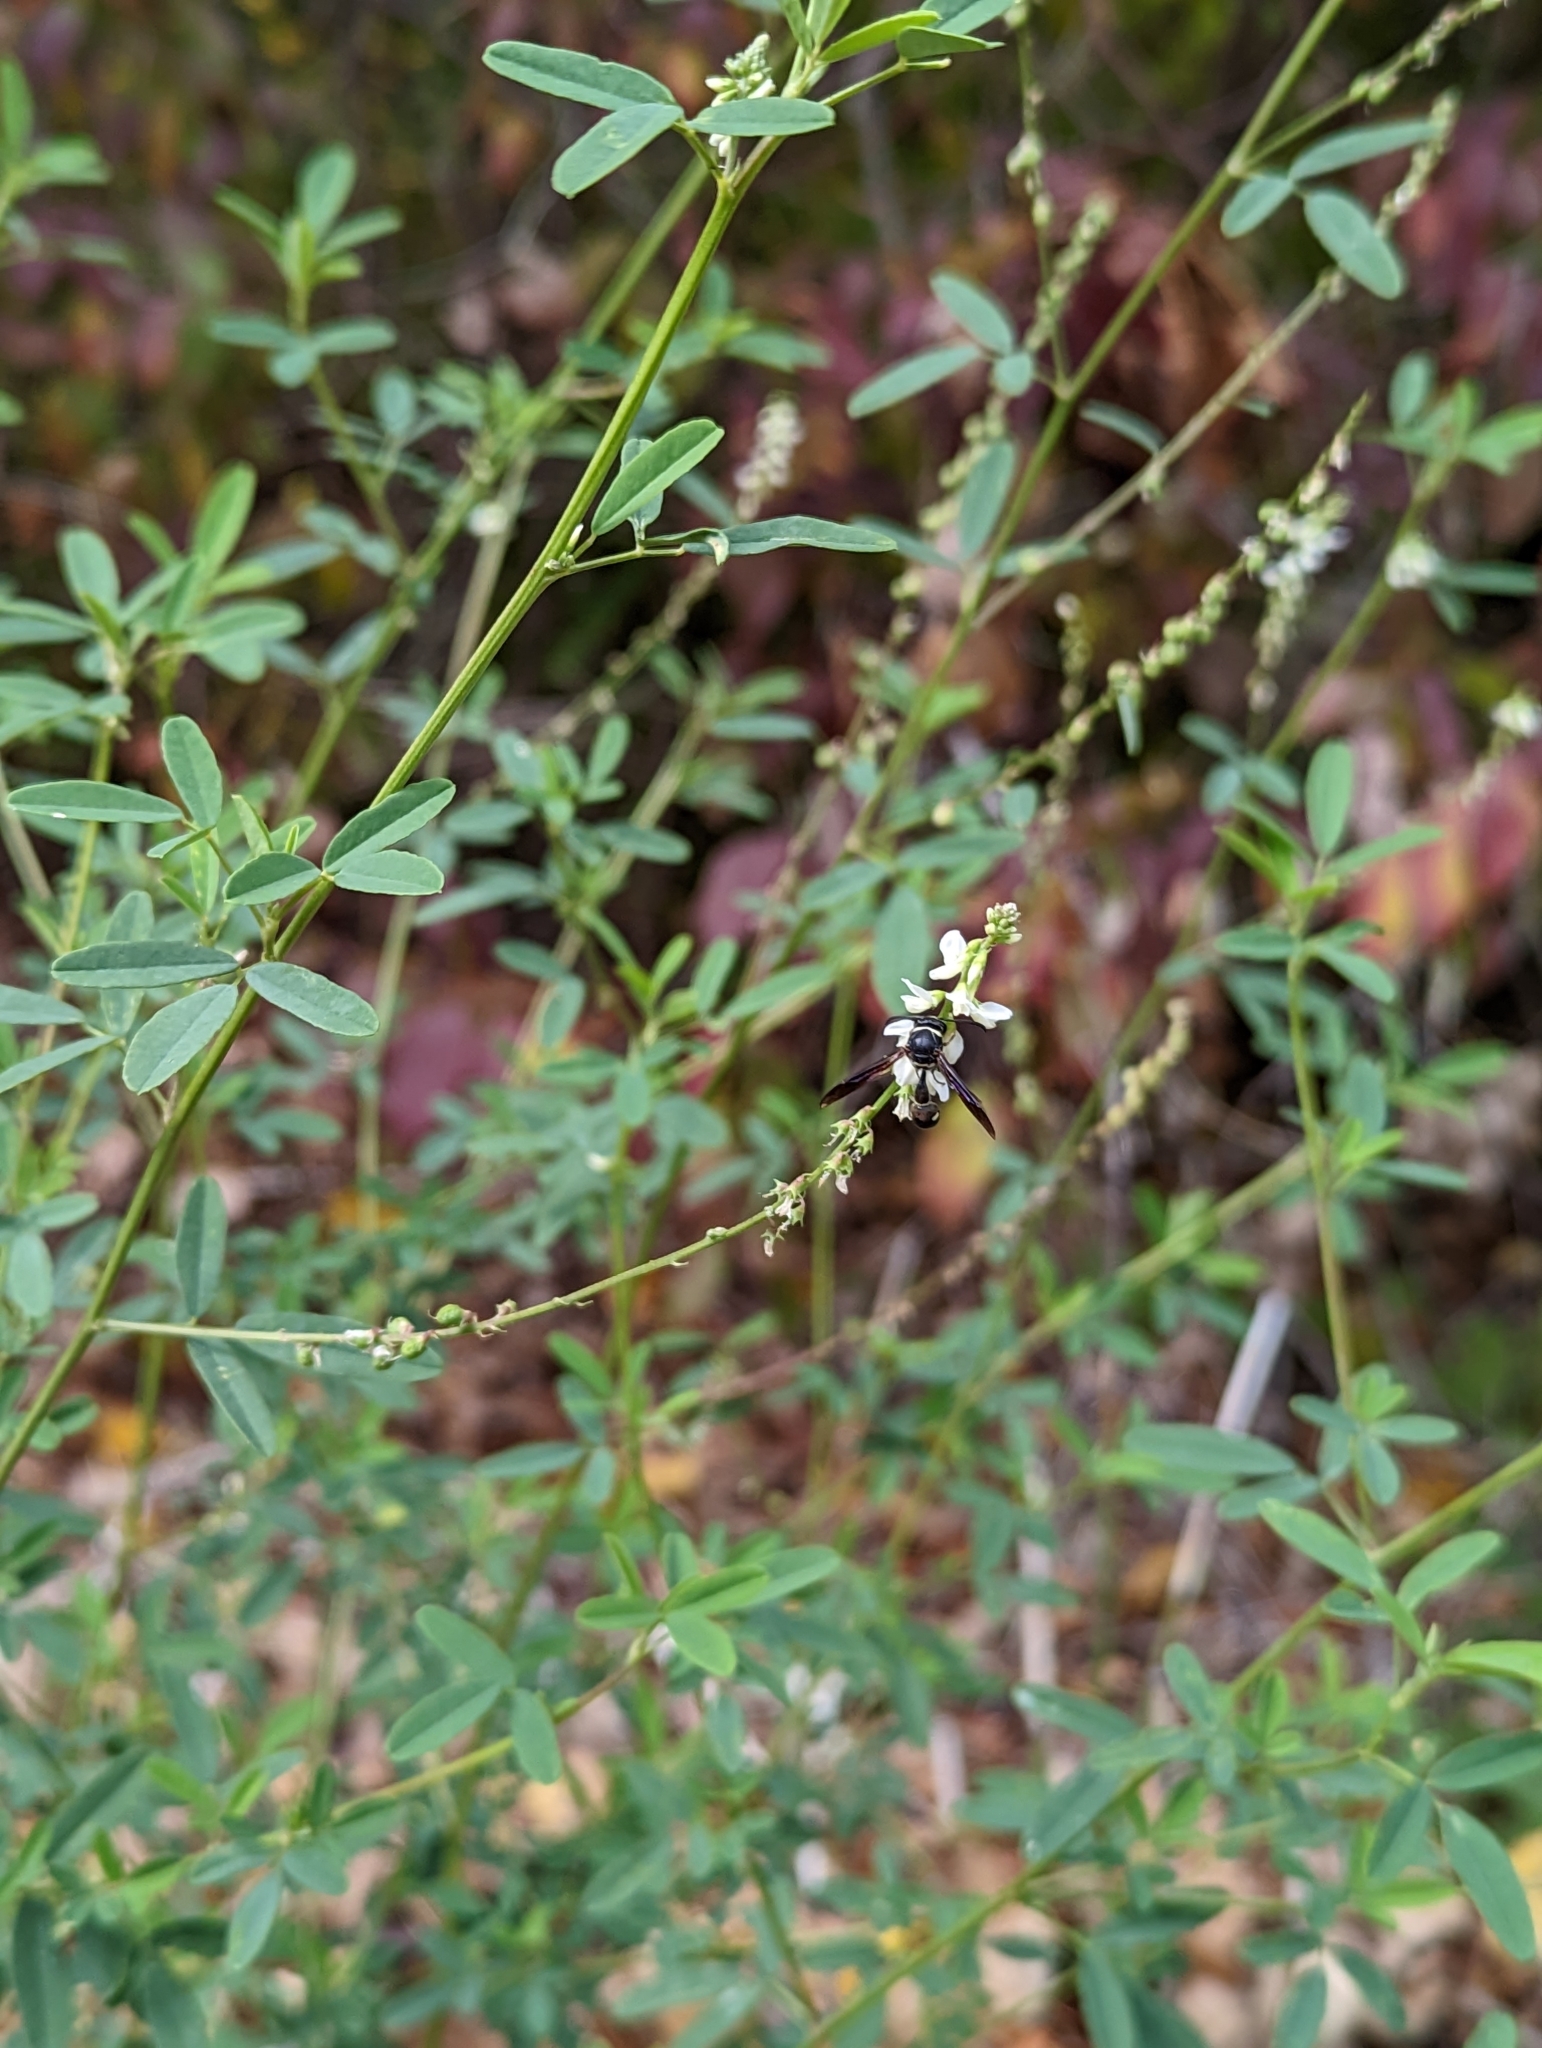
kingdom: Plantae
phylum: Tracheophyta
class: Magnoliopsida
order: Fabales
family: Fabaceae
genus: Melilotus
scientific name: Melilotus albus
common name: White melilot
